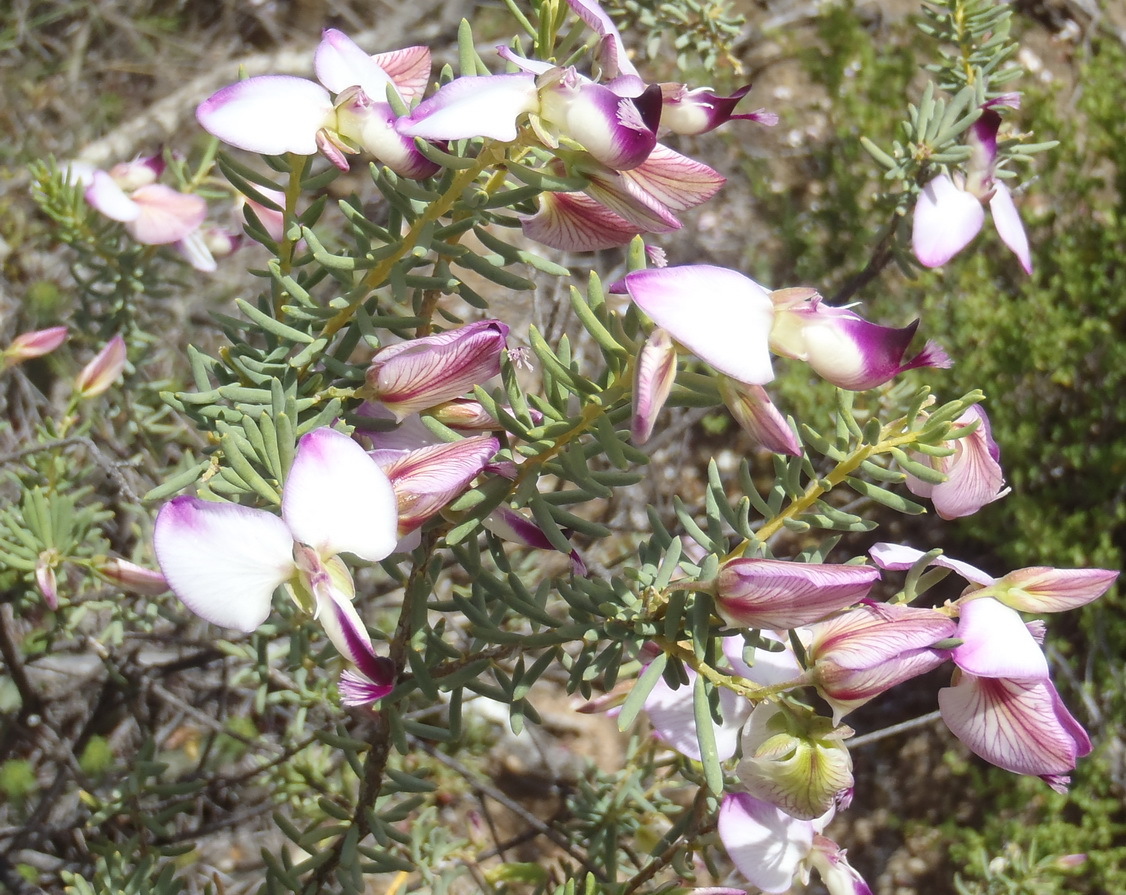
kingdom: Plantae
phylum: Tracheophyta
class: Magnoliopsida
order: Fabales
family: Polygalaceae
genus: Polygala
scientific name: Polygala myrtifolia
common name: Myrtle-leaf milkwort
